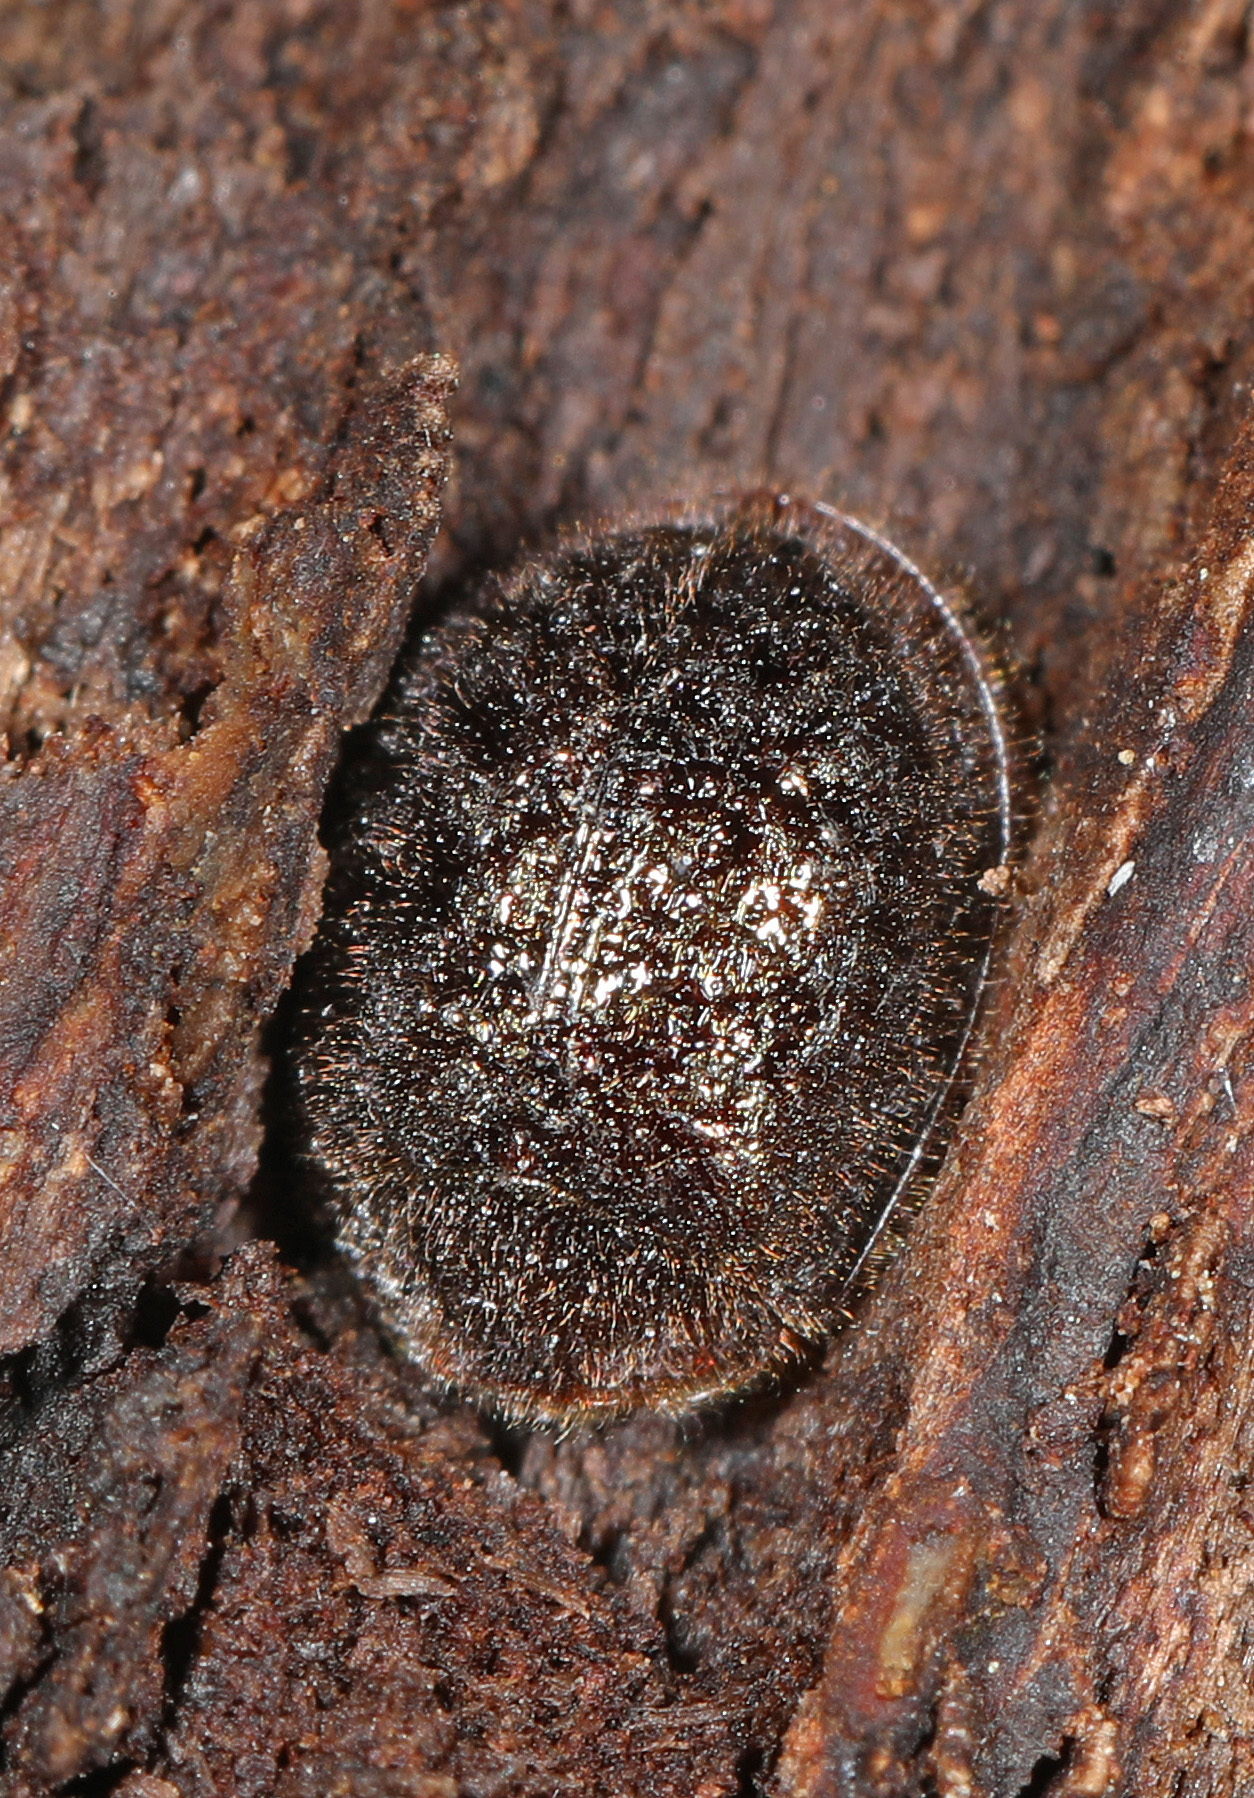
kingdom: Animalia
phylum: Arthropoda
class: Insecta
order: Coleoptera
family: Trogossitidae
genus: Thymalus
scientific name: Thymalus marginicollis
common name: Bark-gnawing beetle
